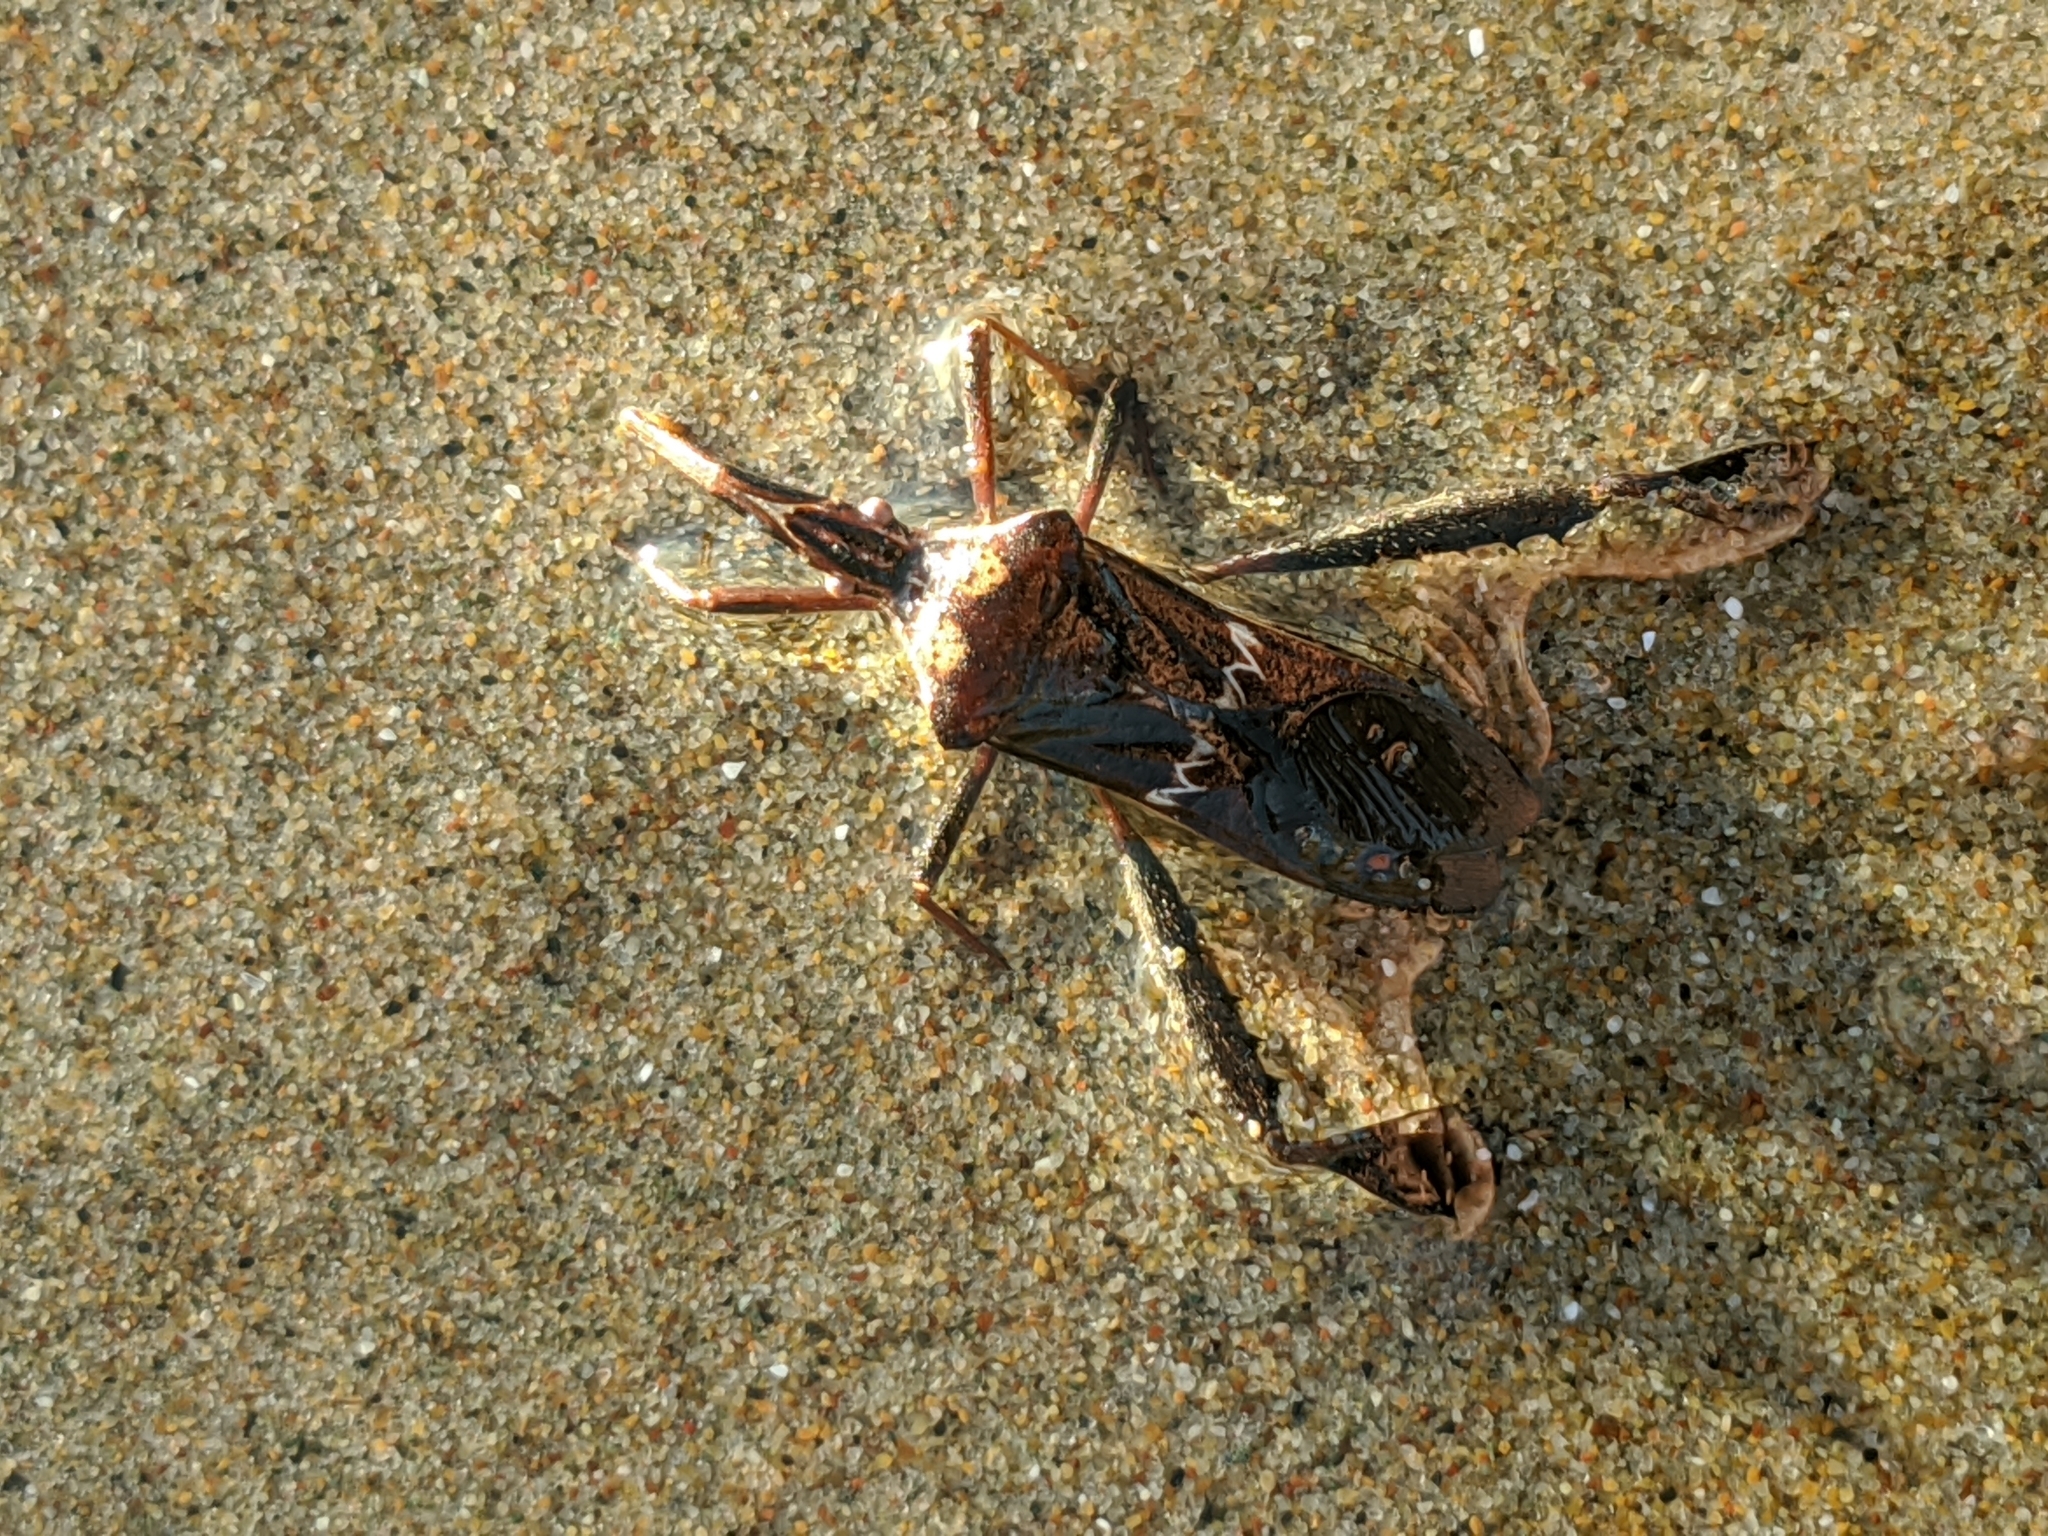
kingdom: Animalia
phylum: Arthropoda
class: Insecta
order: Hemiptera
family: Coreidae
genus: Leptoglossus
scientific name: Leptoglossus zonatus
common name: Large-legged bug
